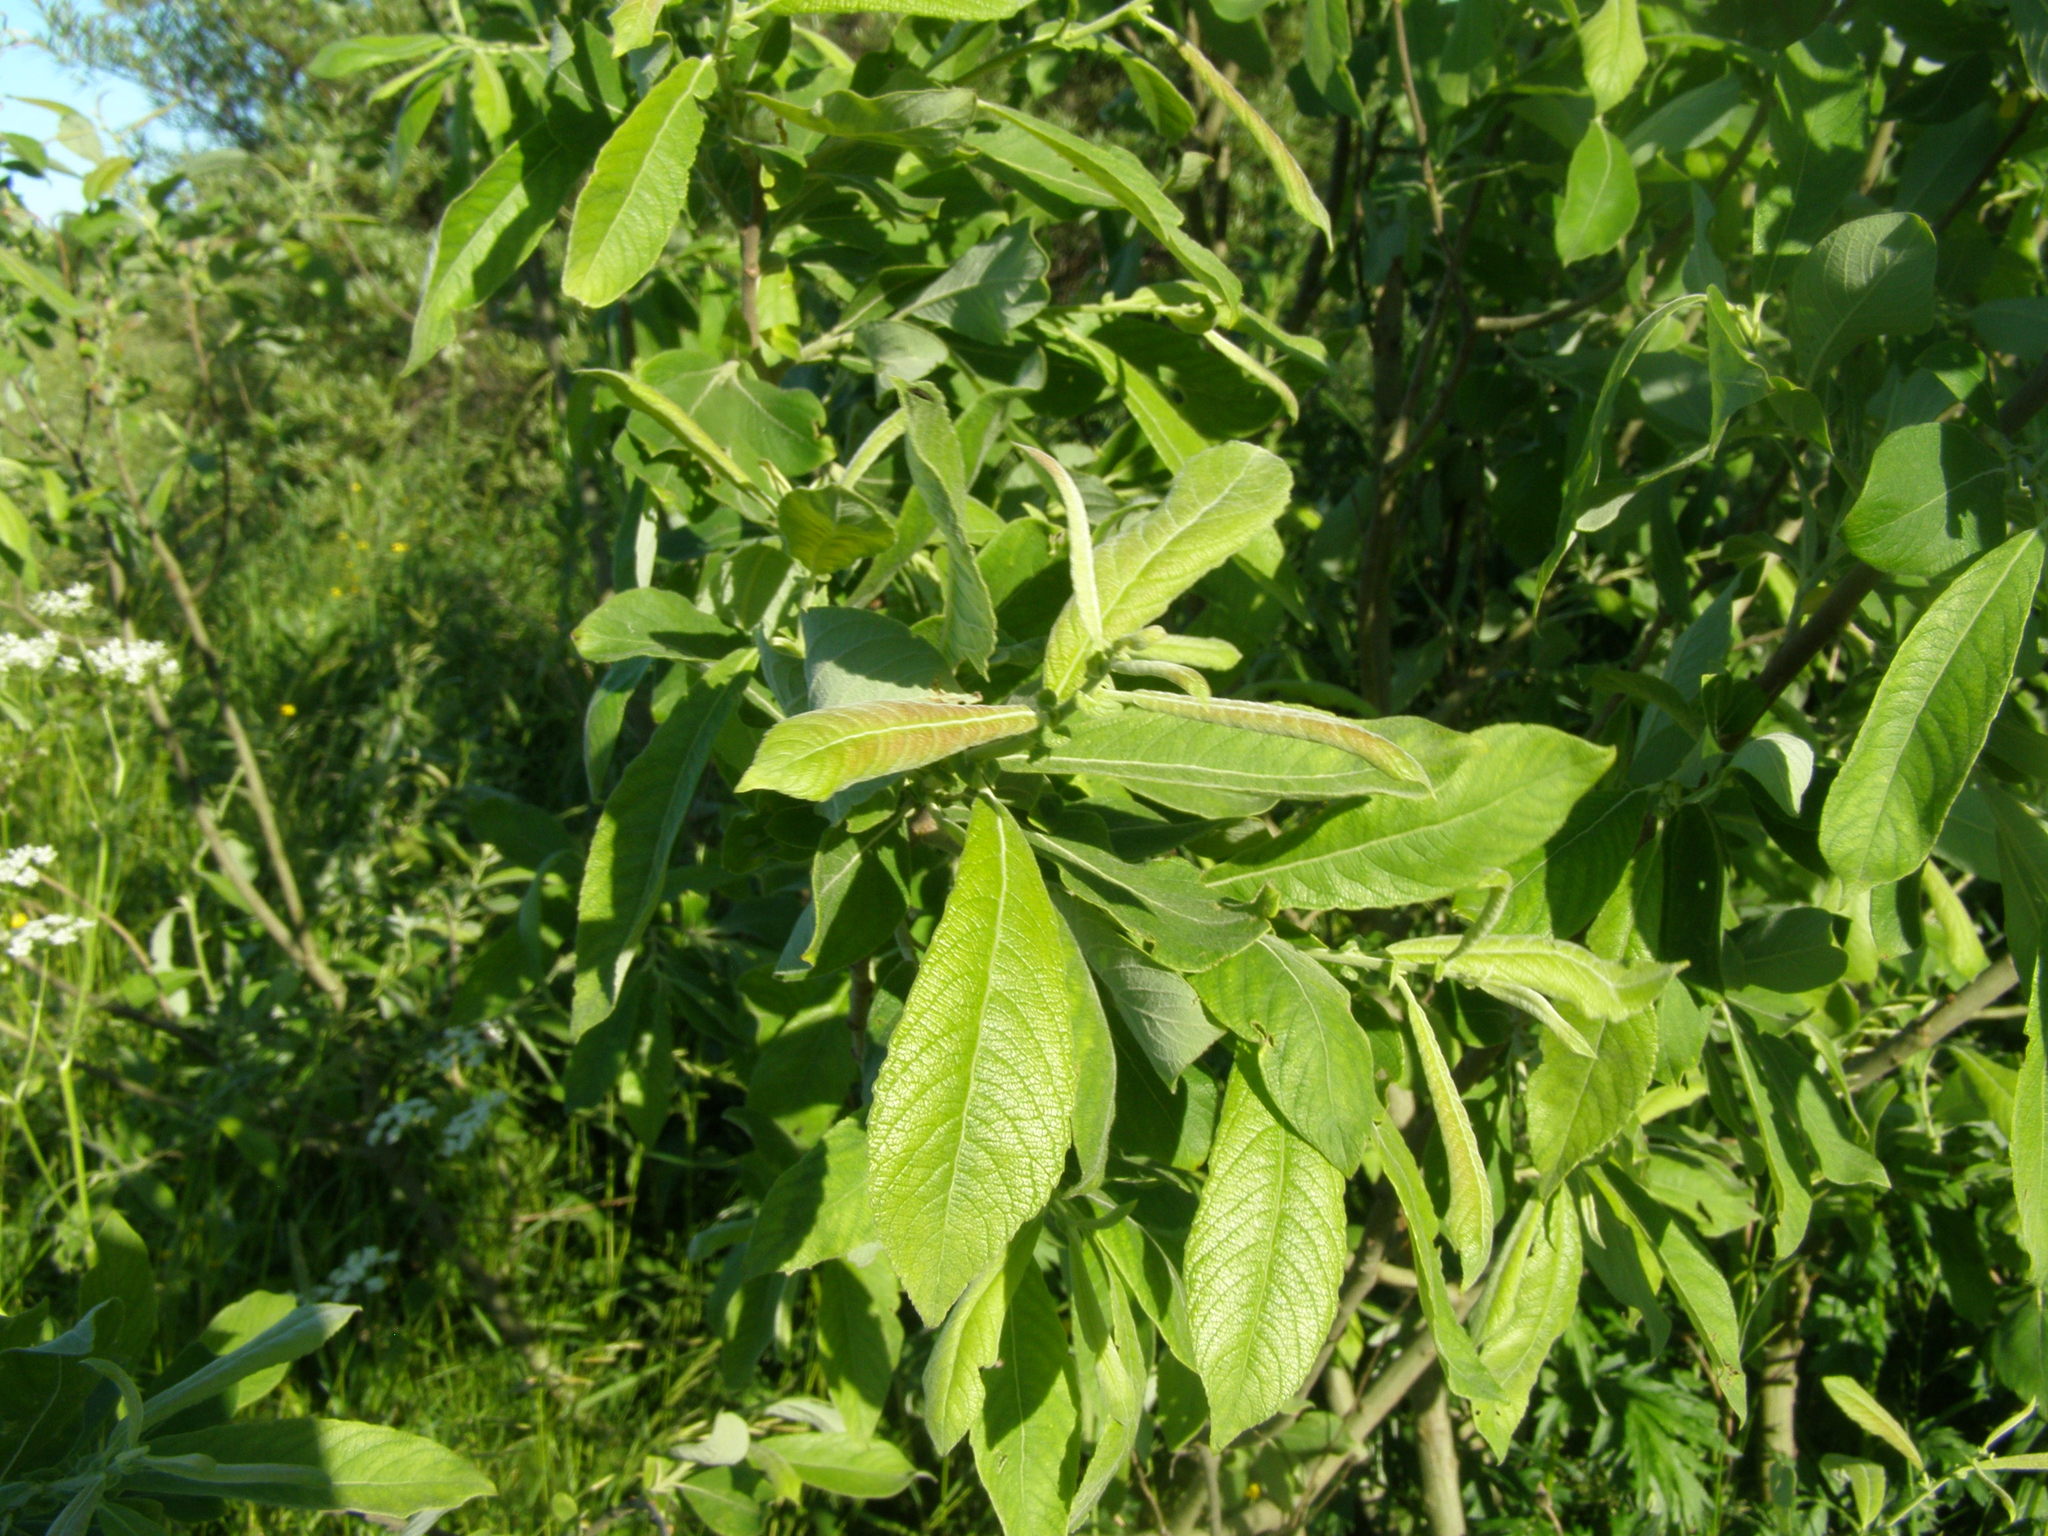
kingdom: Plantae
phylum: Tracheophyta
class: Magnoliopsida
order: Malpighiales
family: Salicaceae
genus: Salix
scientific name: Salix aurita
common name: Eared willow
